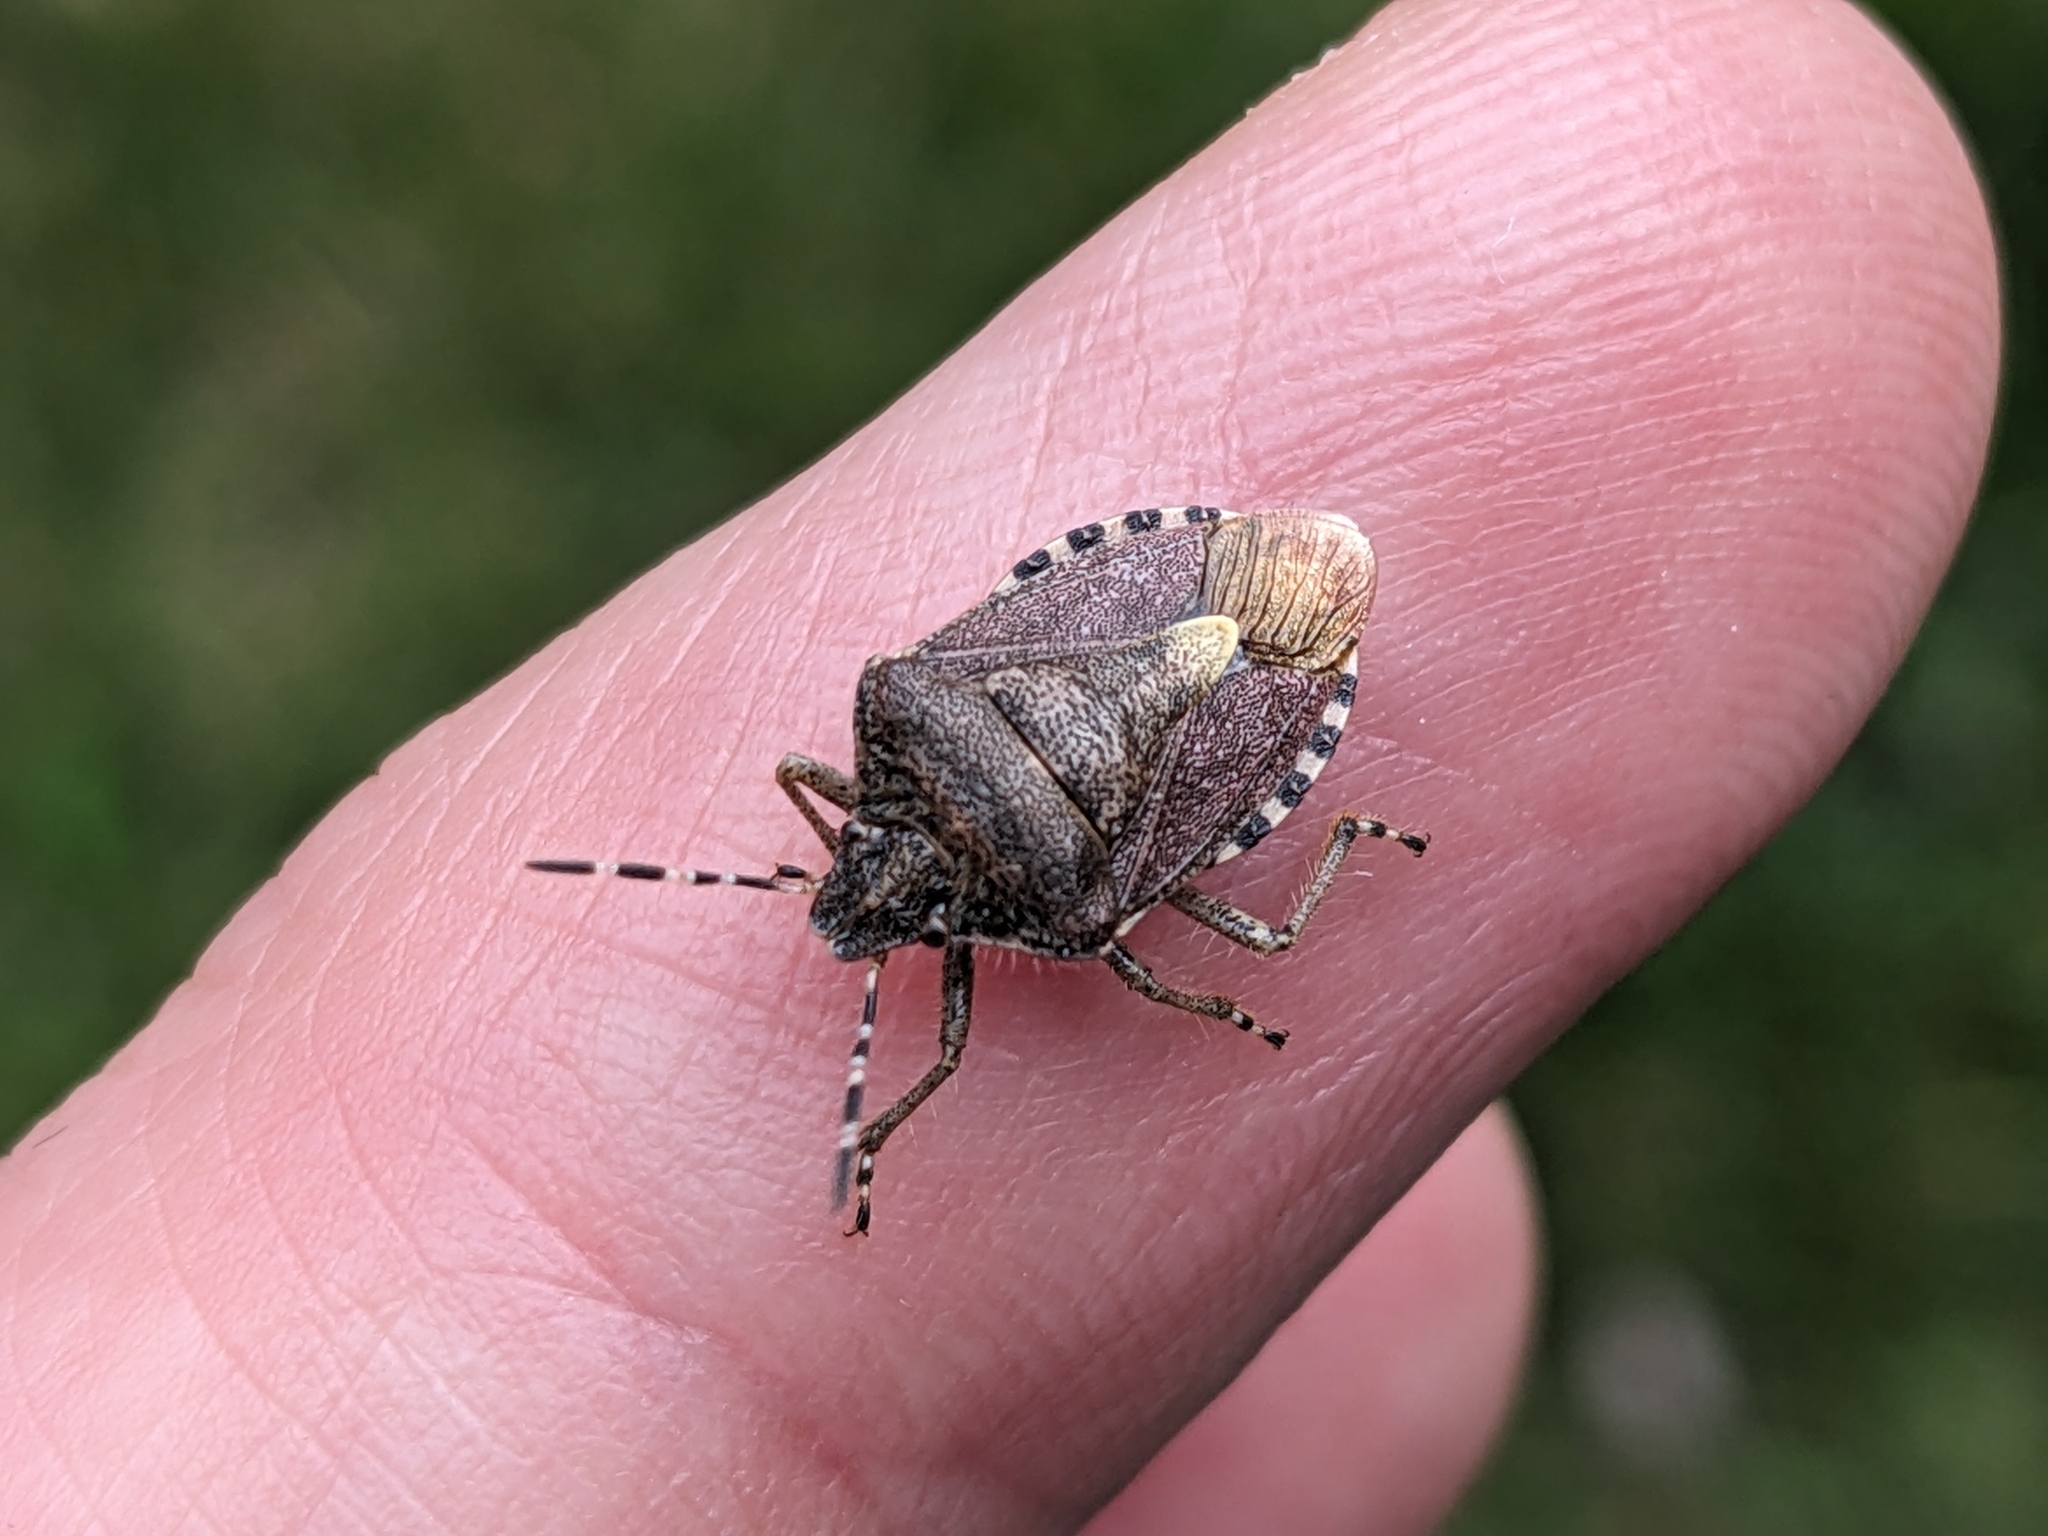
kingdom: Animalia
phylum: Arthropoda
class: Insecta
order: Hemiptera
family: Pentatomidae
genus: Dolycoris
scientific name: Dolycoris baccarum
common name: Sloe bug
